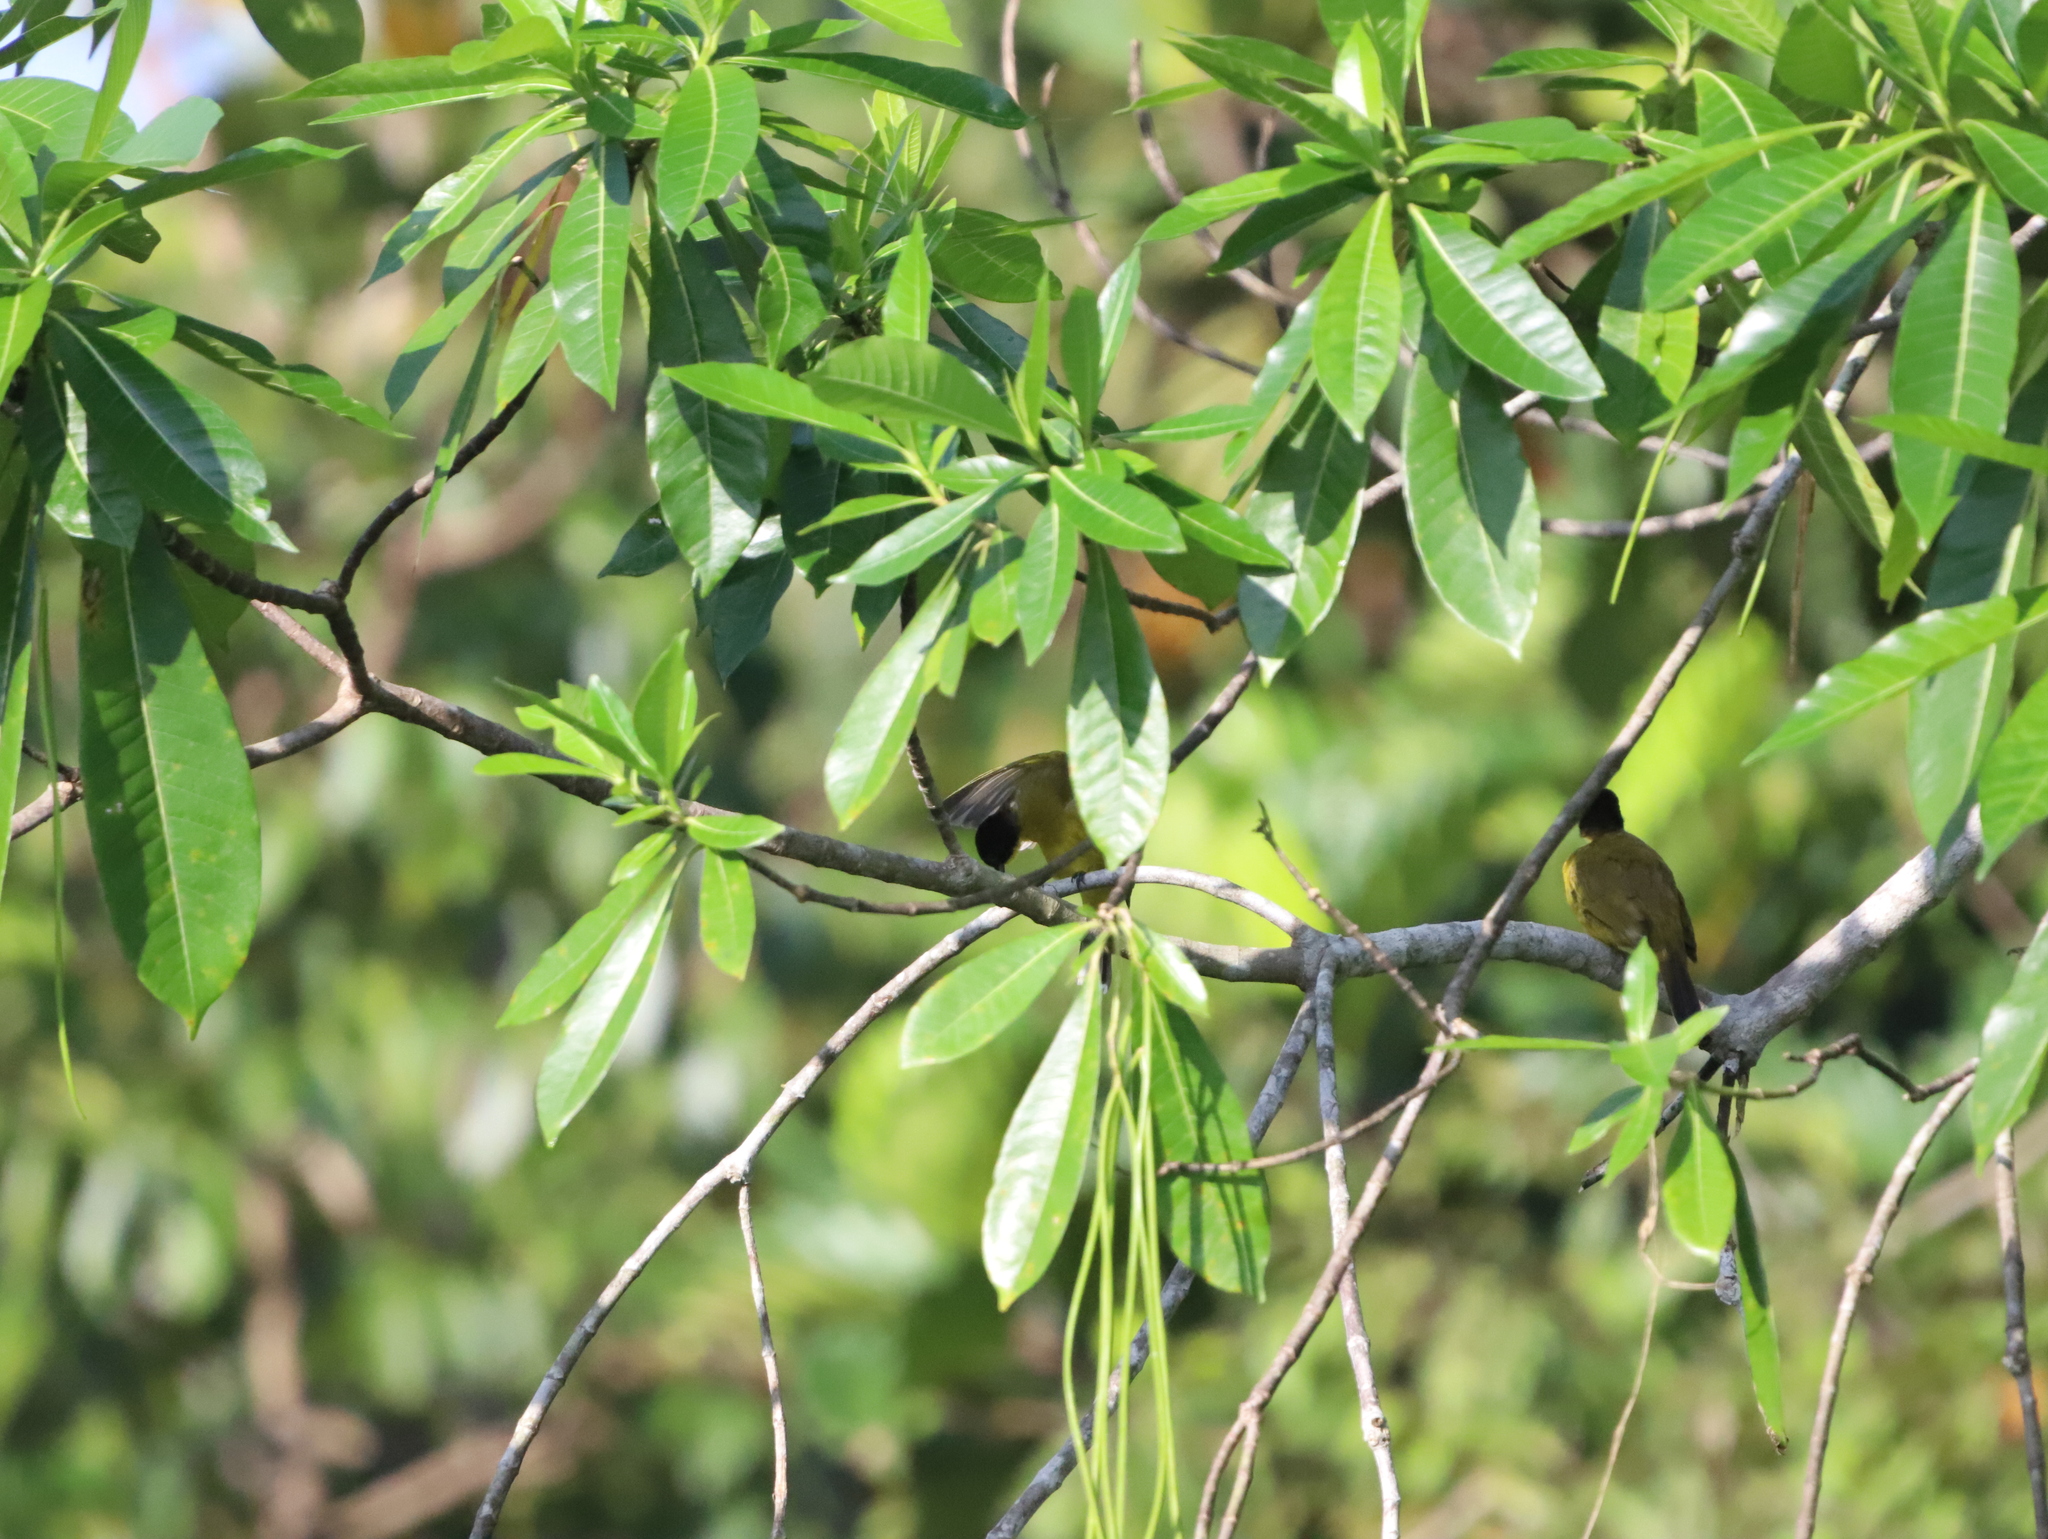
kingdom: Animalia
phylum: Chordata
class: Aves
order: Passeriformes
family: Pycnonotidae
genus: Pycnonotus
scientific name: Pycnonotus melanicterus
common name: Black-crested bulbul
